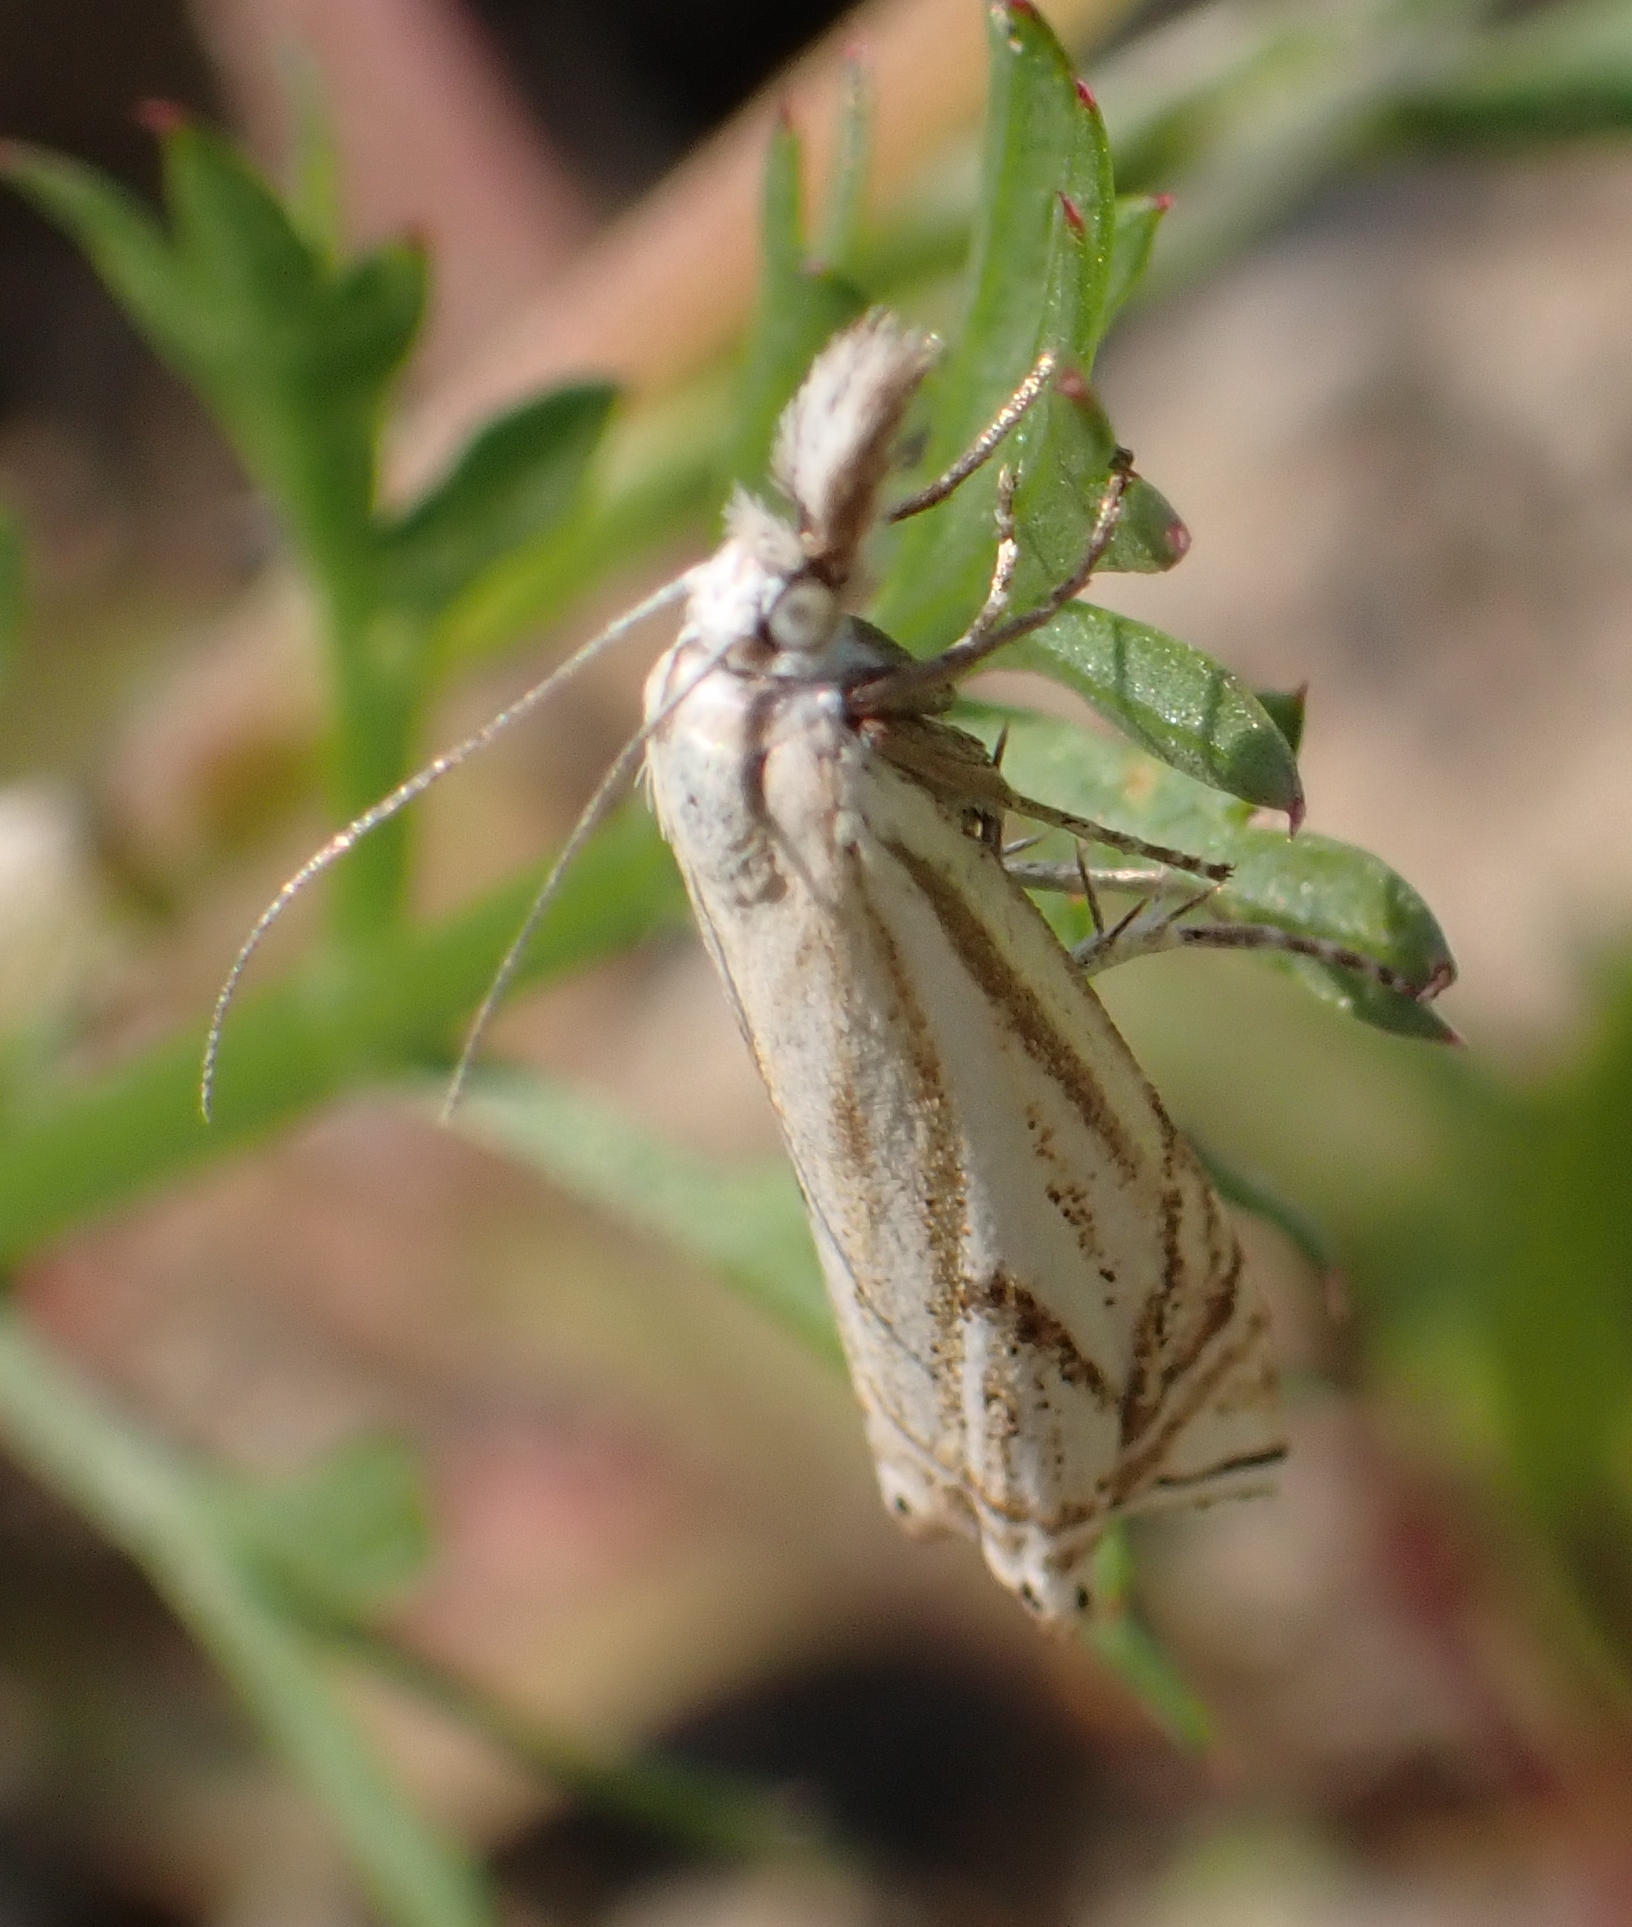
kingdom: Animalia
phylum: Arthropoda
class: Insecta
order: Lepidoptera
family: Crambidae
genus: Crambus
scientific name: Crambus nemorella
